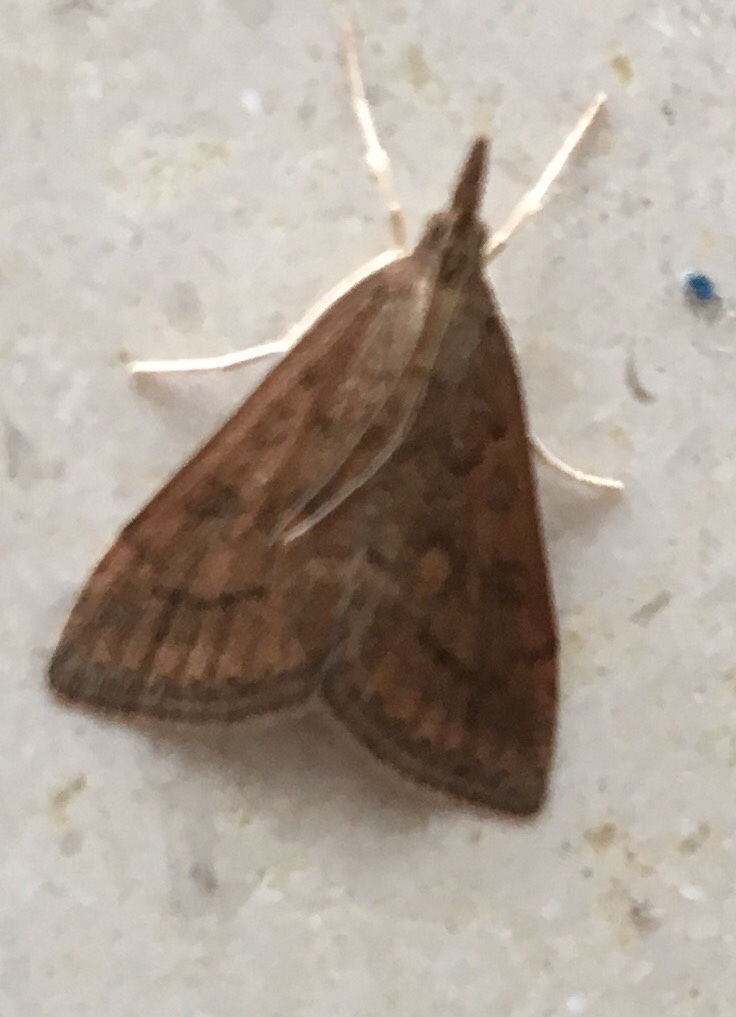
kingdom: Animalia
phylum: Arthropoda
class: Insecta
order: Lepidoptera
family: Crambidae
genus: Udea
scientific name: Udea rubigalis
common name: Celery leaftier moth
